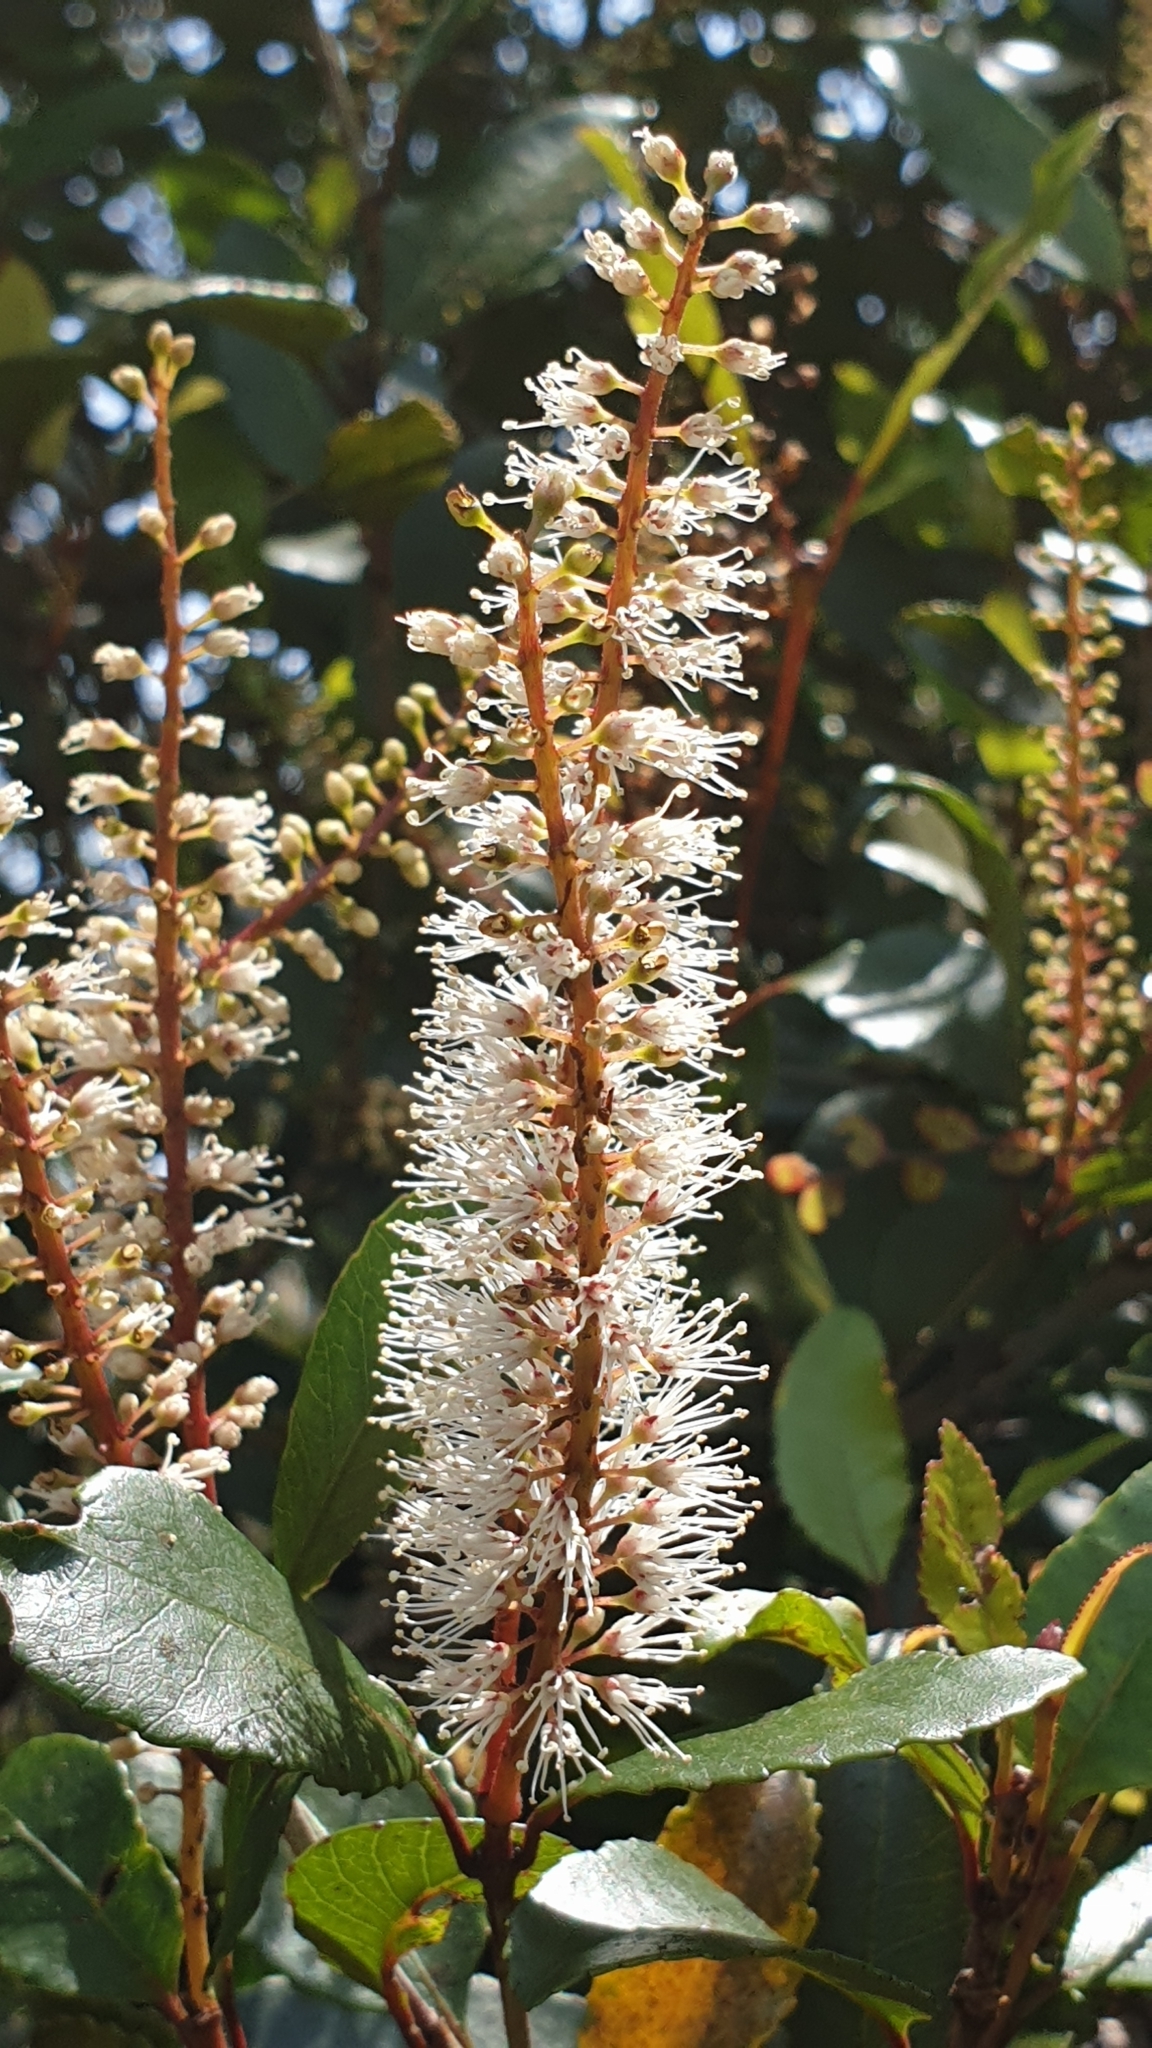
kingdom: Plantae
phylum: Tracheophyta
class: Magnoliopsida
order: Oxalidales
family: Cunoniaceae
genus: Pterophylla
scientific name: Pterophylla racemosa
